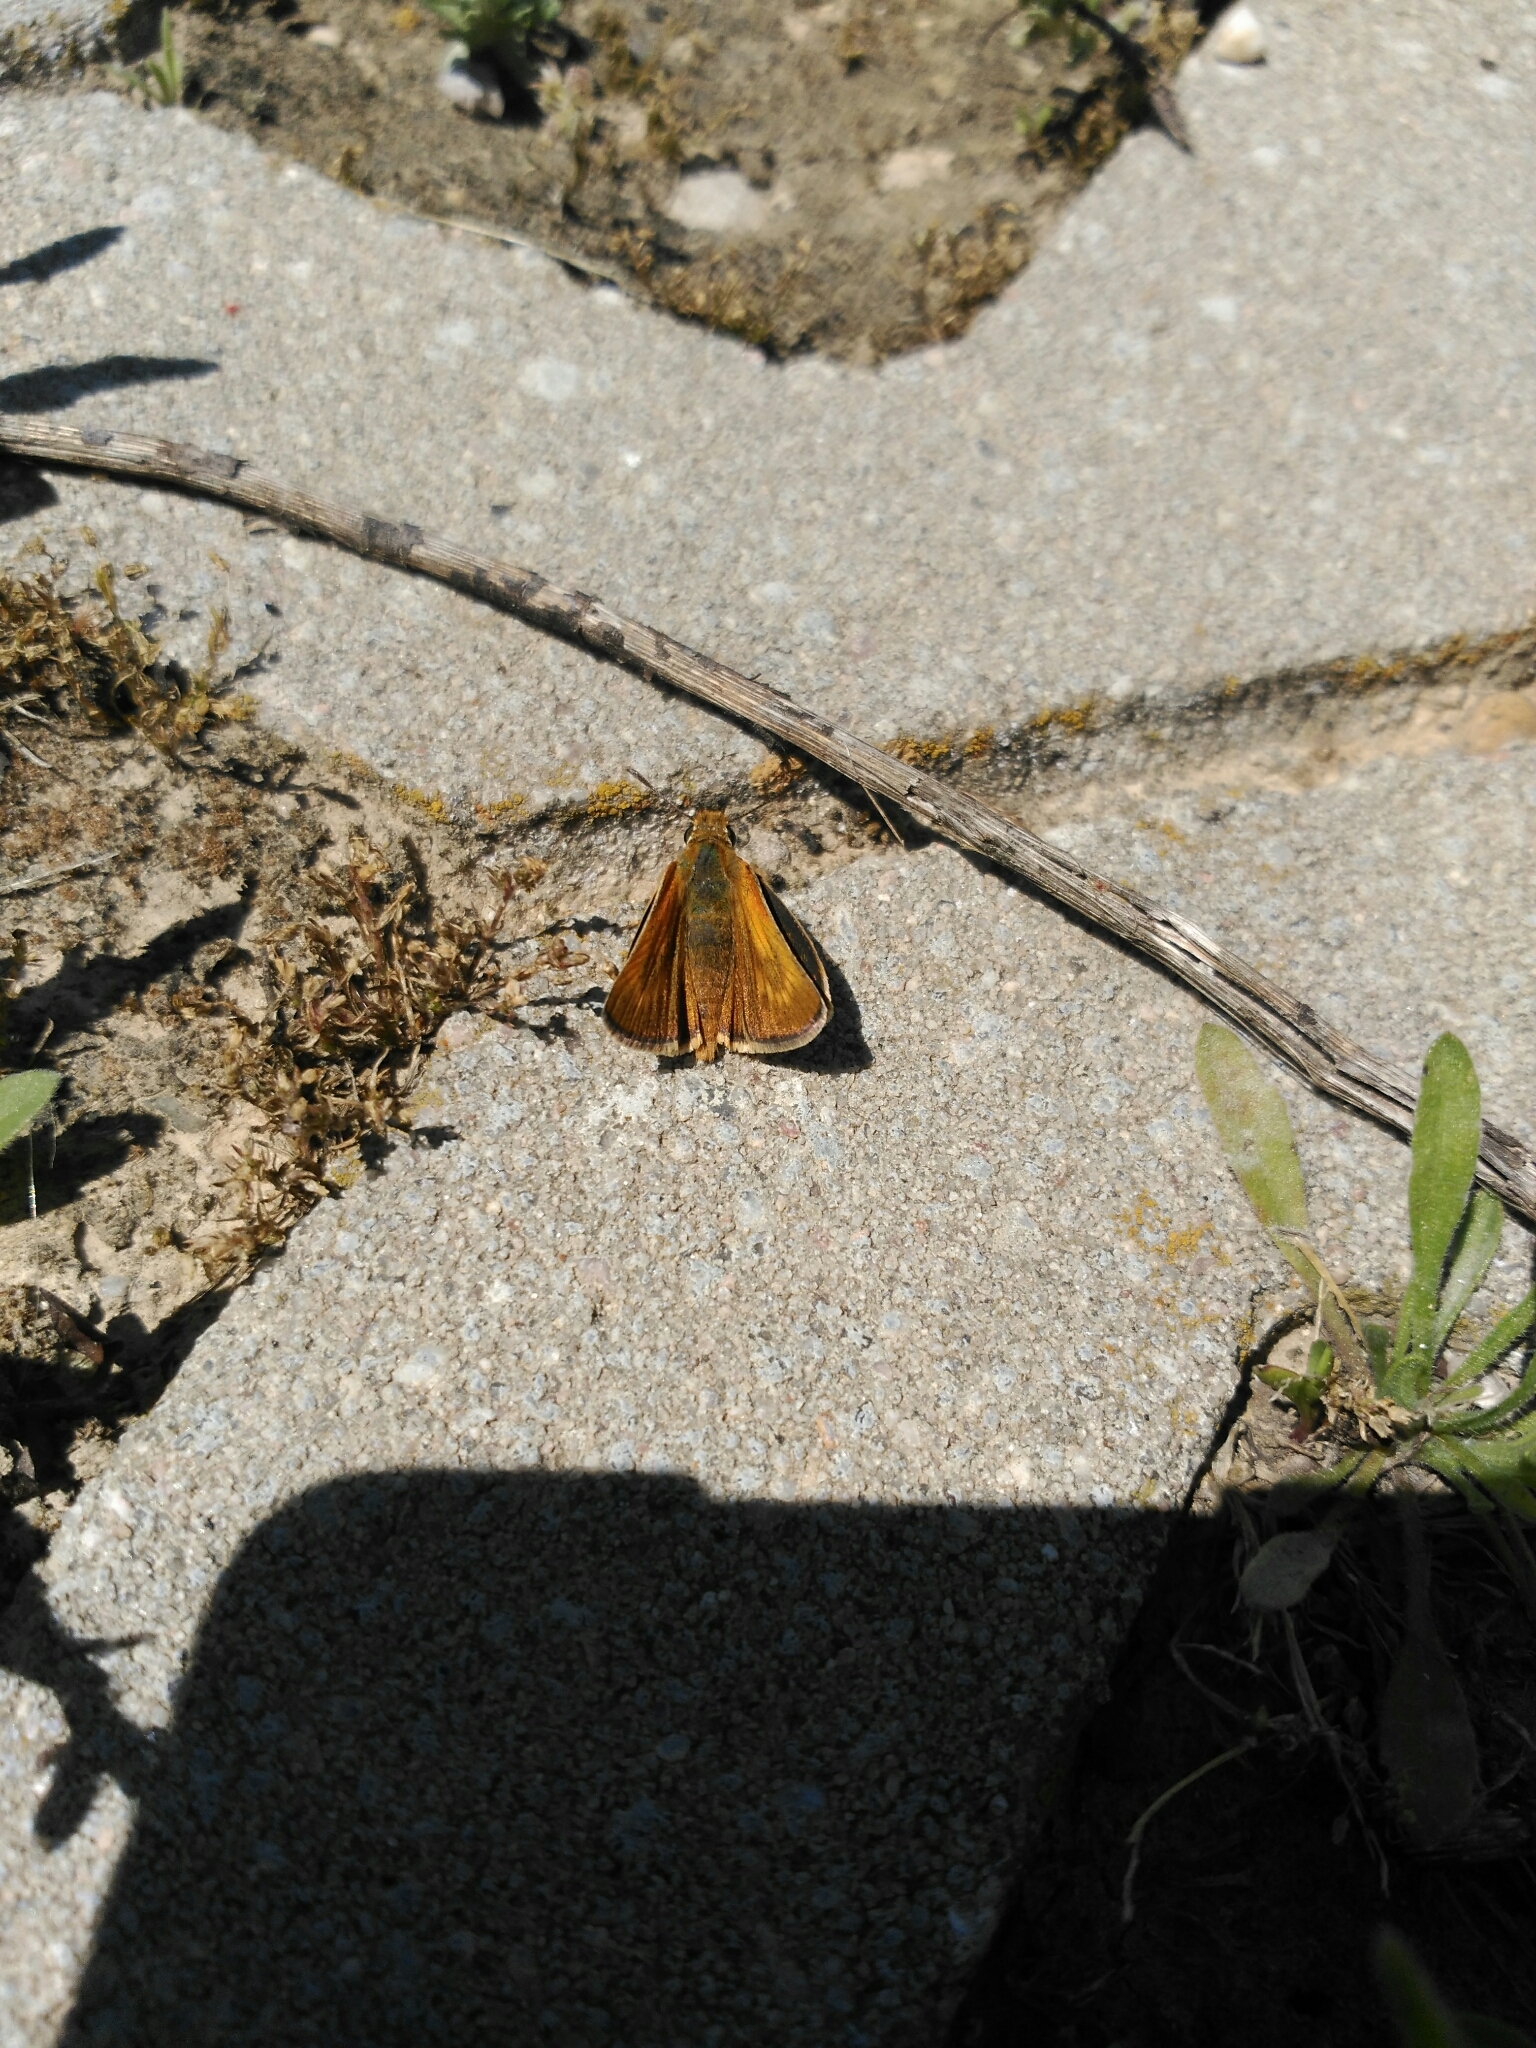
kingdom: Animalia
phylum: Arthropoda
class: Insecta
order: Lepidoptera
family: Hesperiidae
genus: Thymelicus
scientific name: Thymelicus acteon
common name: Lulworth skipper
